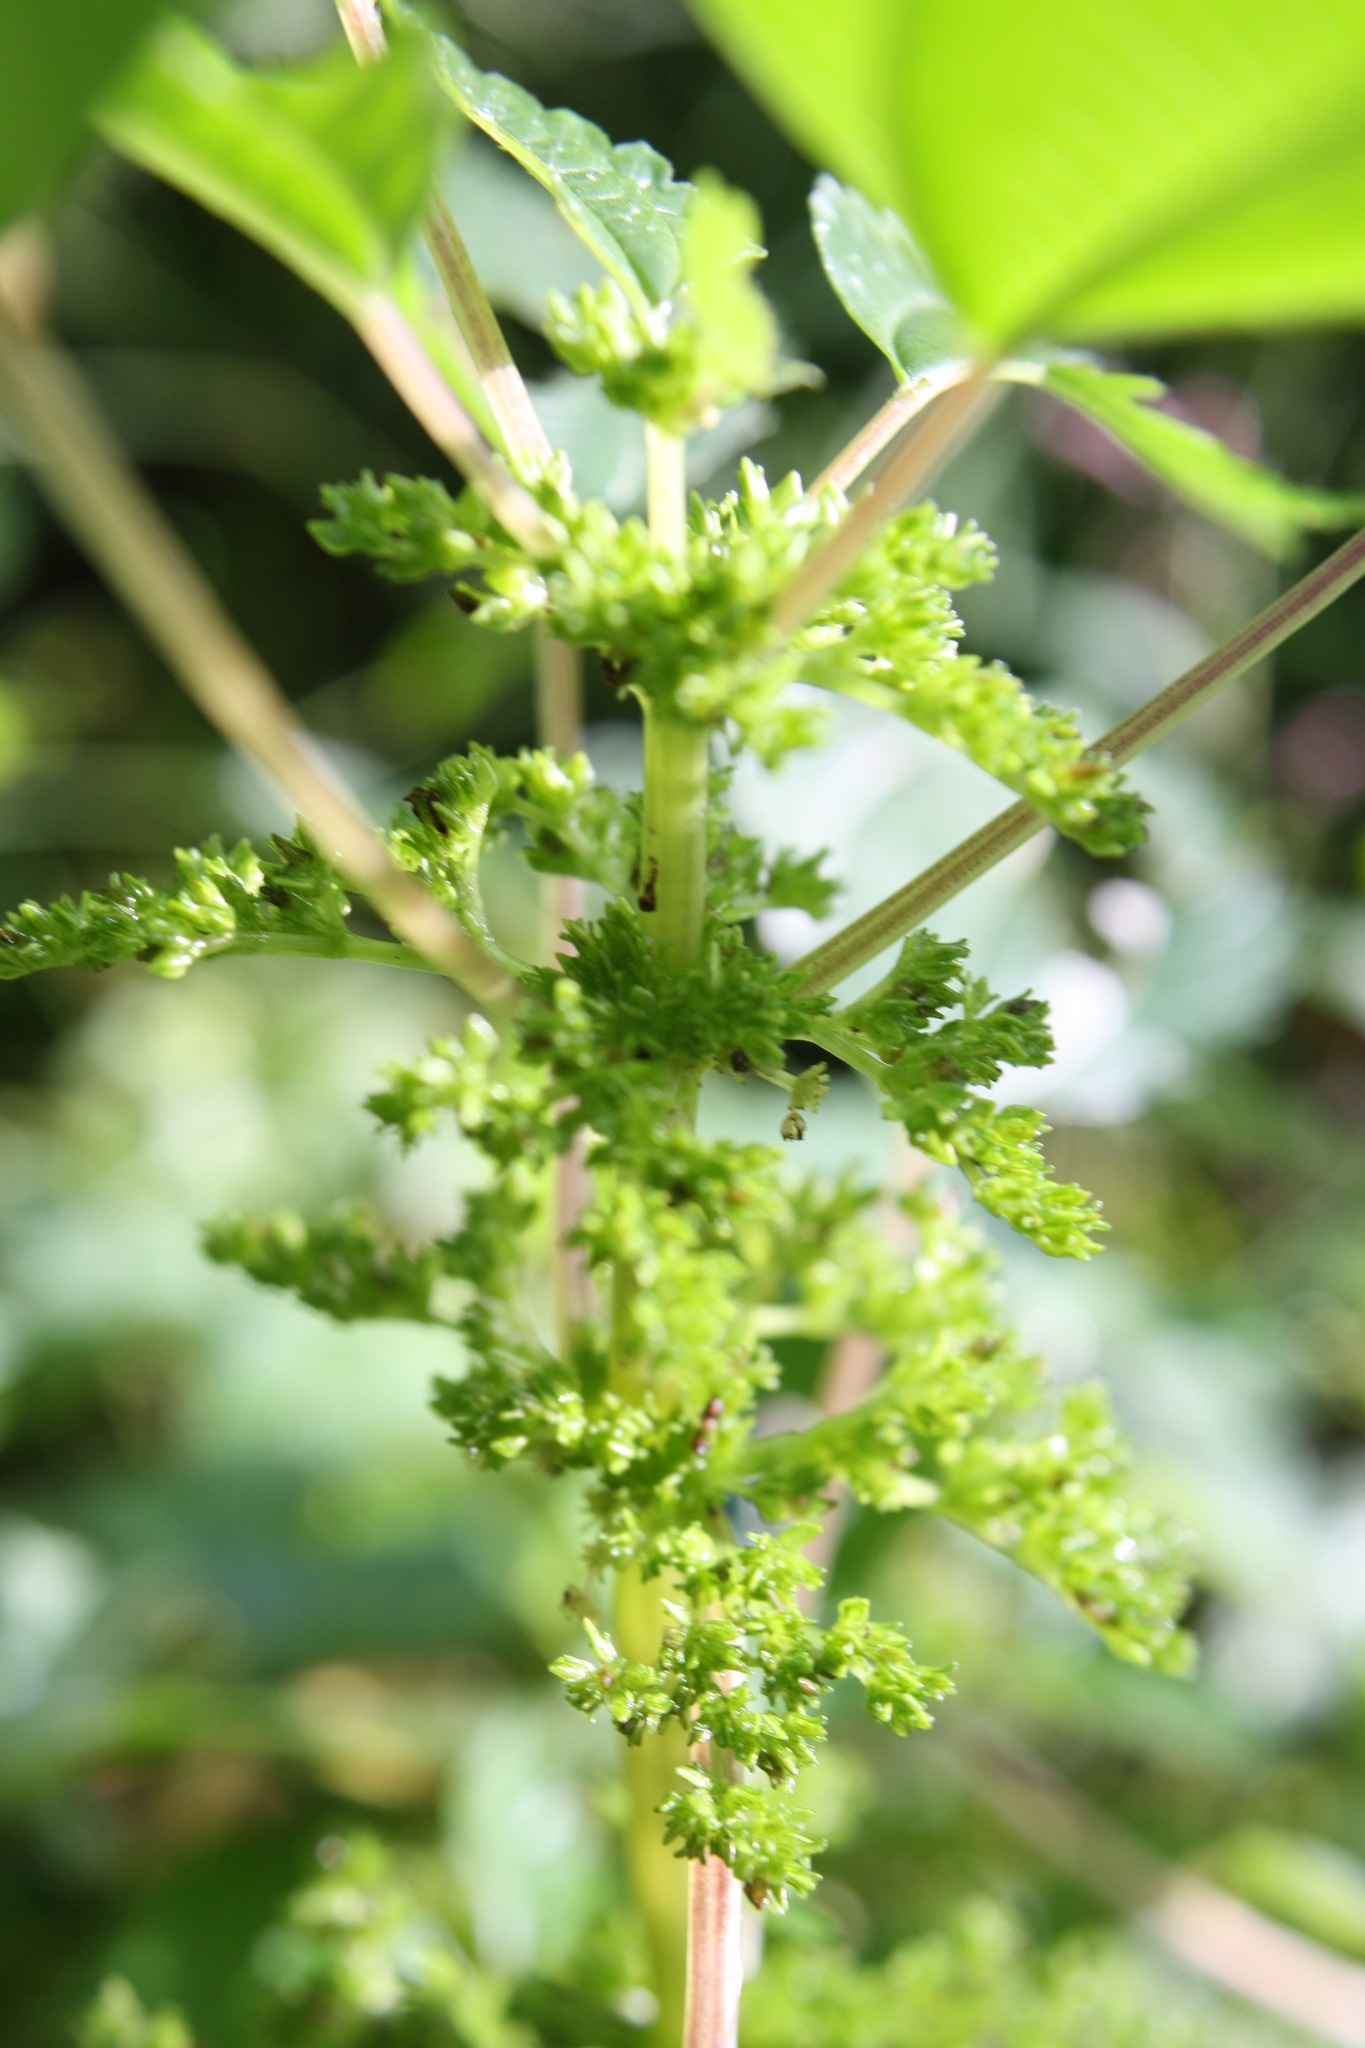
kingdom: Plantae
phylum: Tracheophyta
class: Magnoliopsida
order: Rosales
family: Urticaceae
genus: Pilea
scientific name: Pilea pumila
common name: Clearweed
